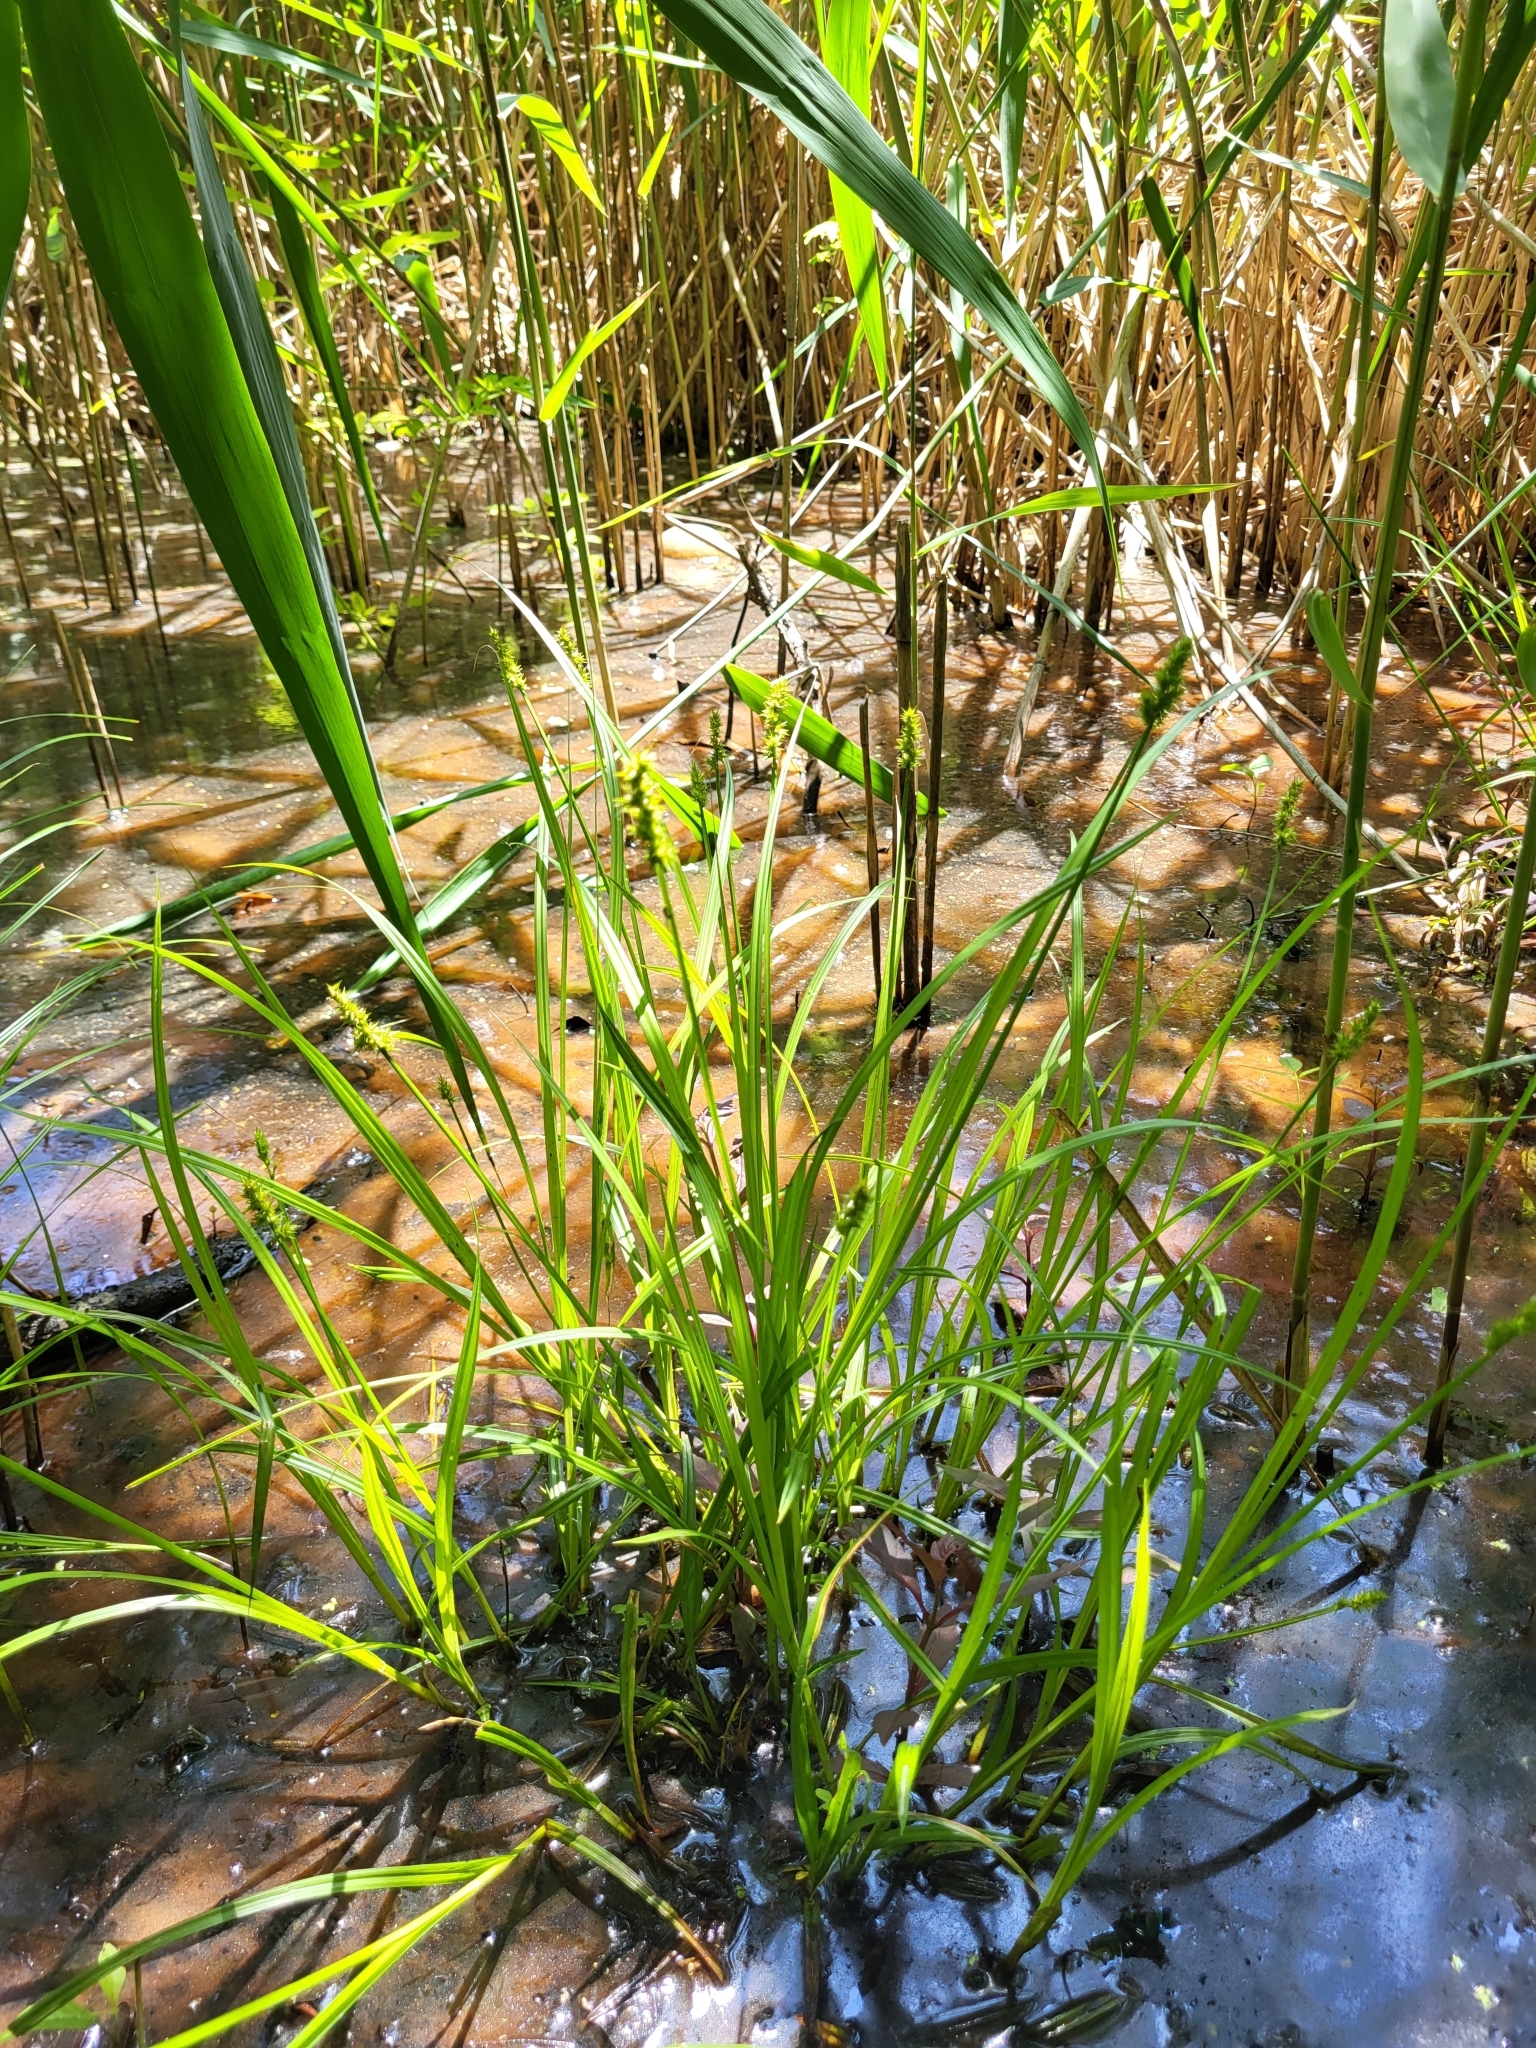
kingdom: Plantae
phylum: Tracheophyta
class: Liliopsida
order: Poales
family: Cyperaceae
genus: Carex
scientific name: Carex laevivaginata
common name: Smooth-sheathed fox sedge
